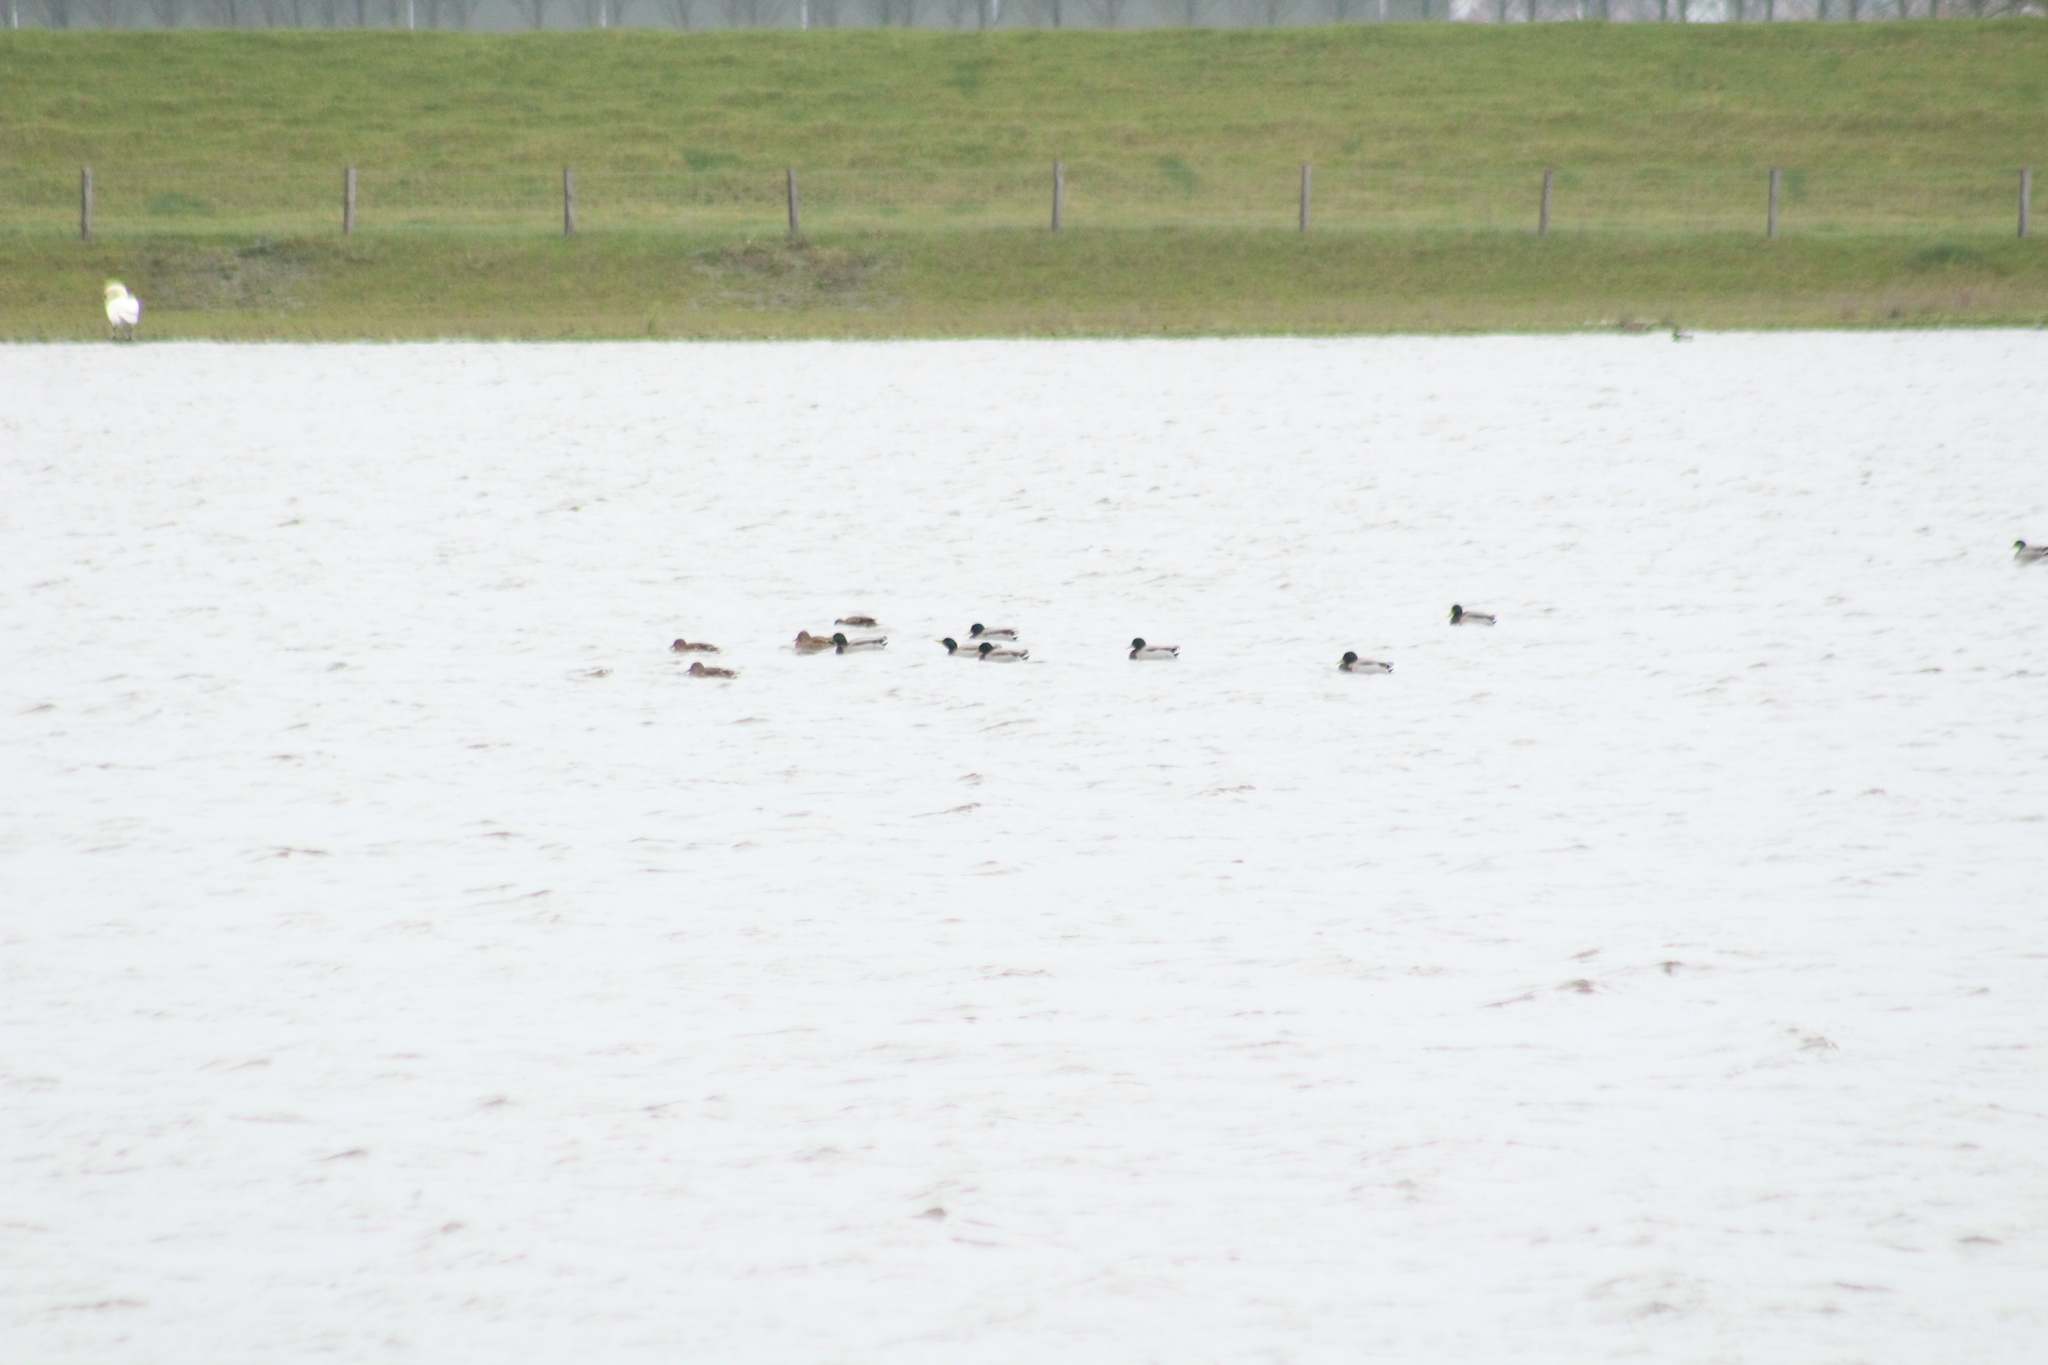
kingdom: Animalia
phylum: Chordata
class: Aves
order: Anseriformes
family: Anatidae
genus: Anas
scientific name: Anas platyrhynchos
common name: Mallard
